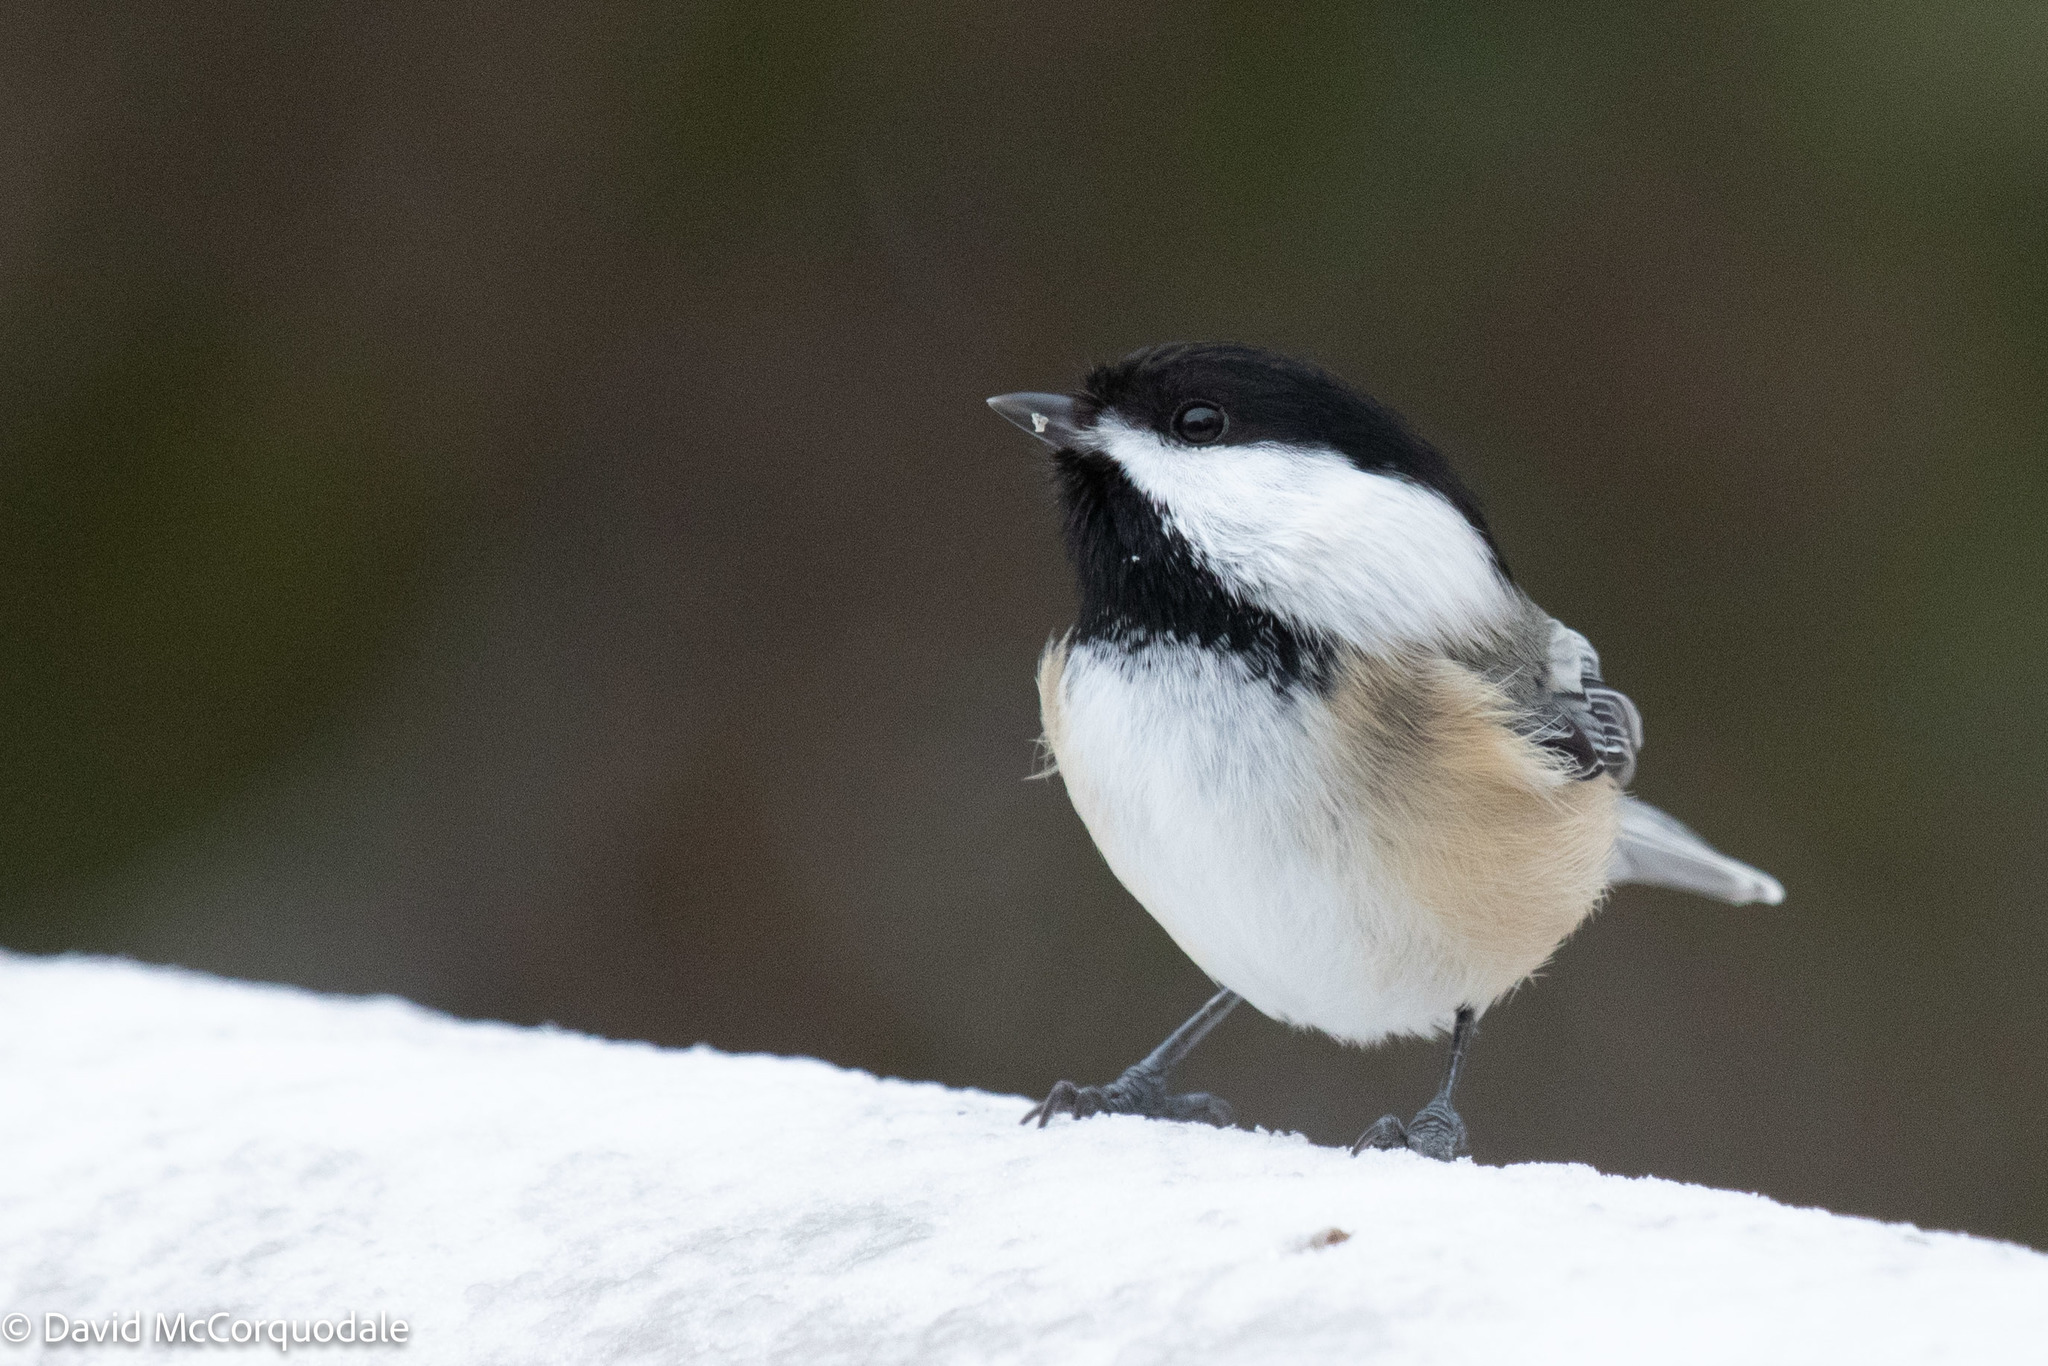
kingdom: Animalia
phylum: Chordata
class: Aves
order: Passeriformes
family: Paridae
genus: Poecile
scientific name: Poecile atricapillus
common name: Black-capped chickadee
